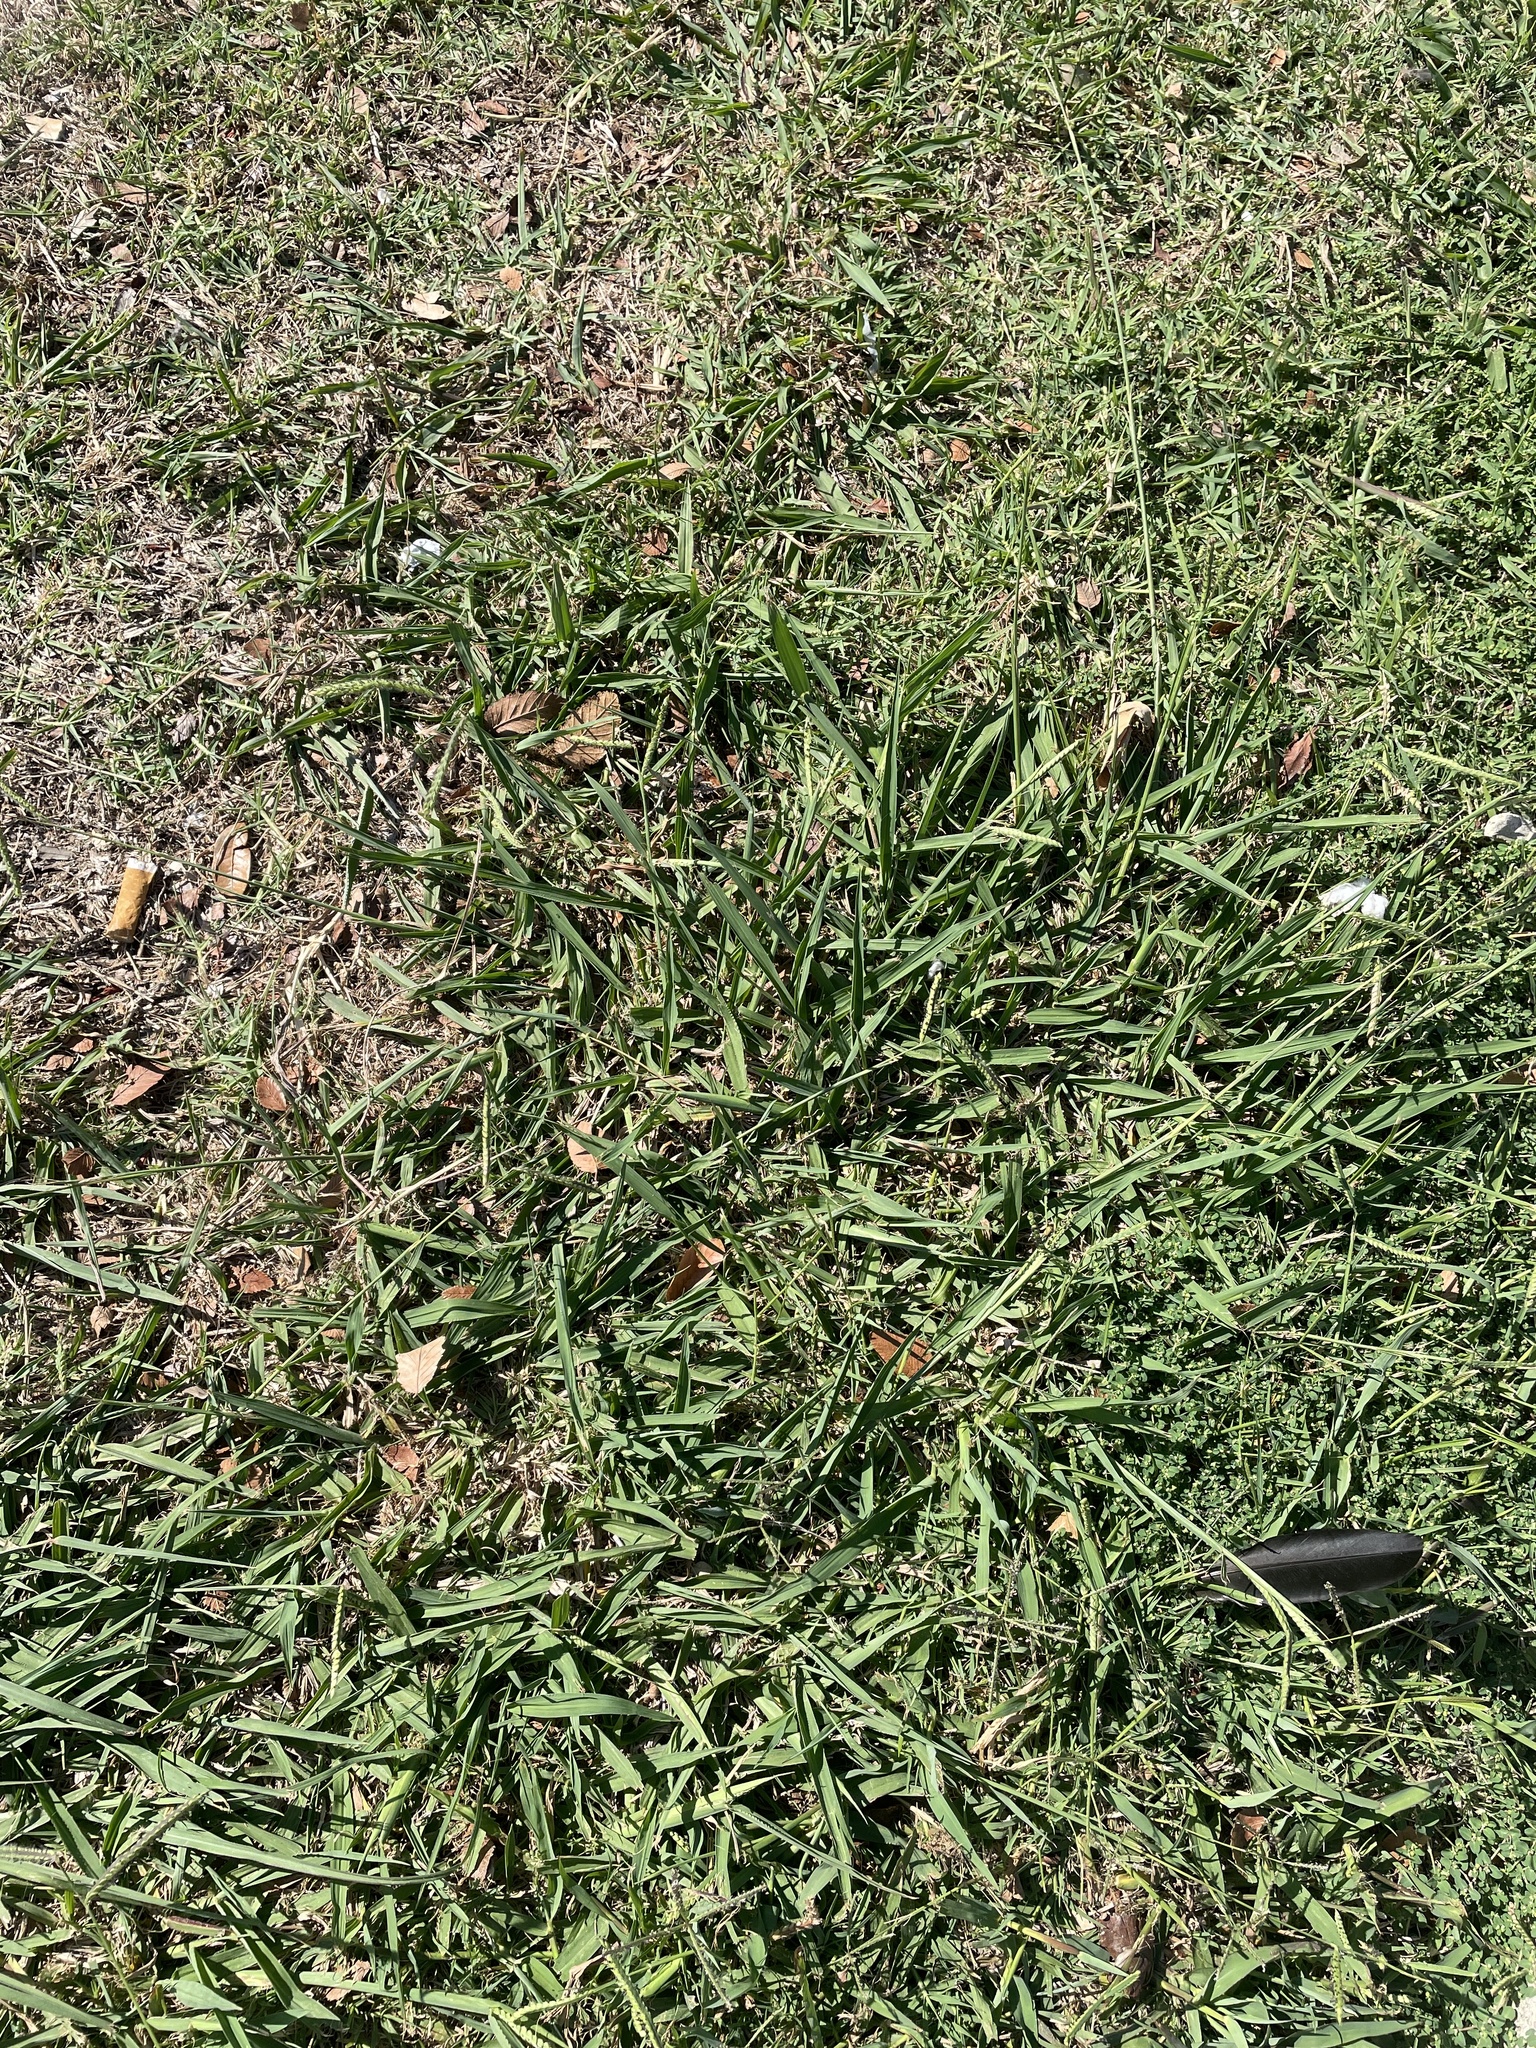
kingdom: Plantae
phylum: Tracheophyta
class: Liliopsida
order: Poales
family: Poaceae
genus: Paspalum
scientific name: Paspalum dilatatum
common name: Dallisgrass
